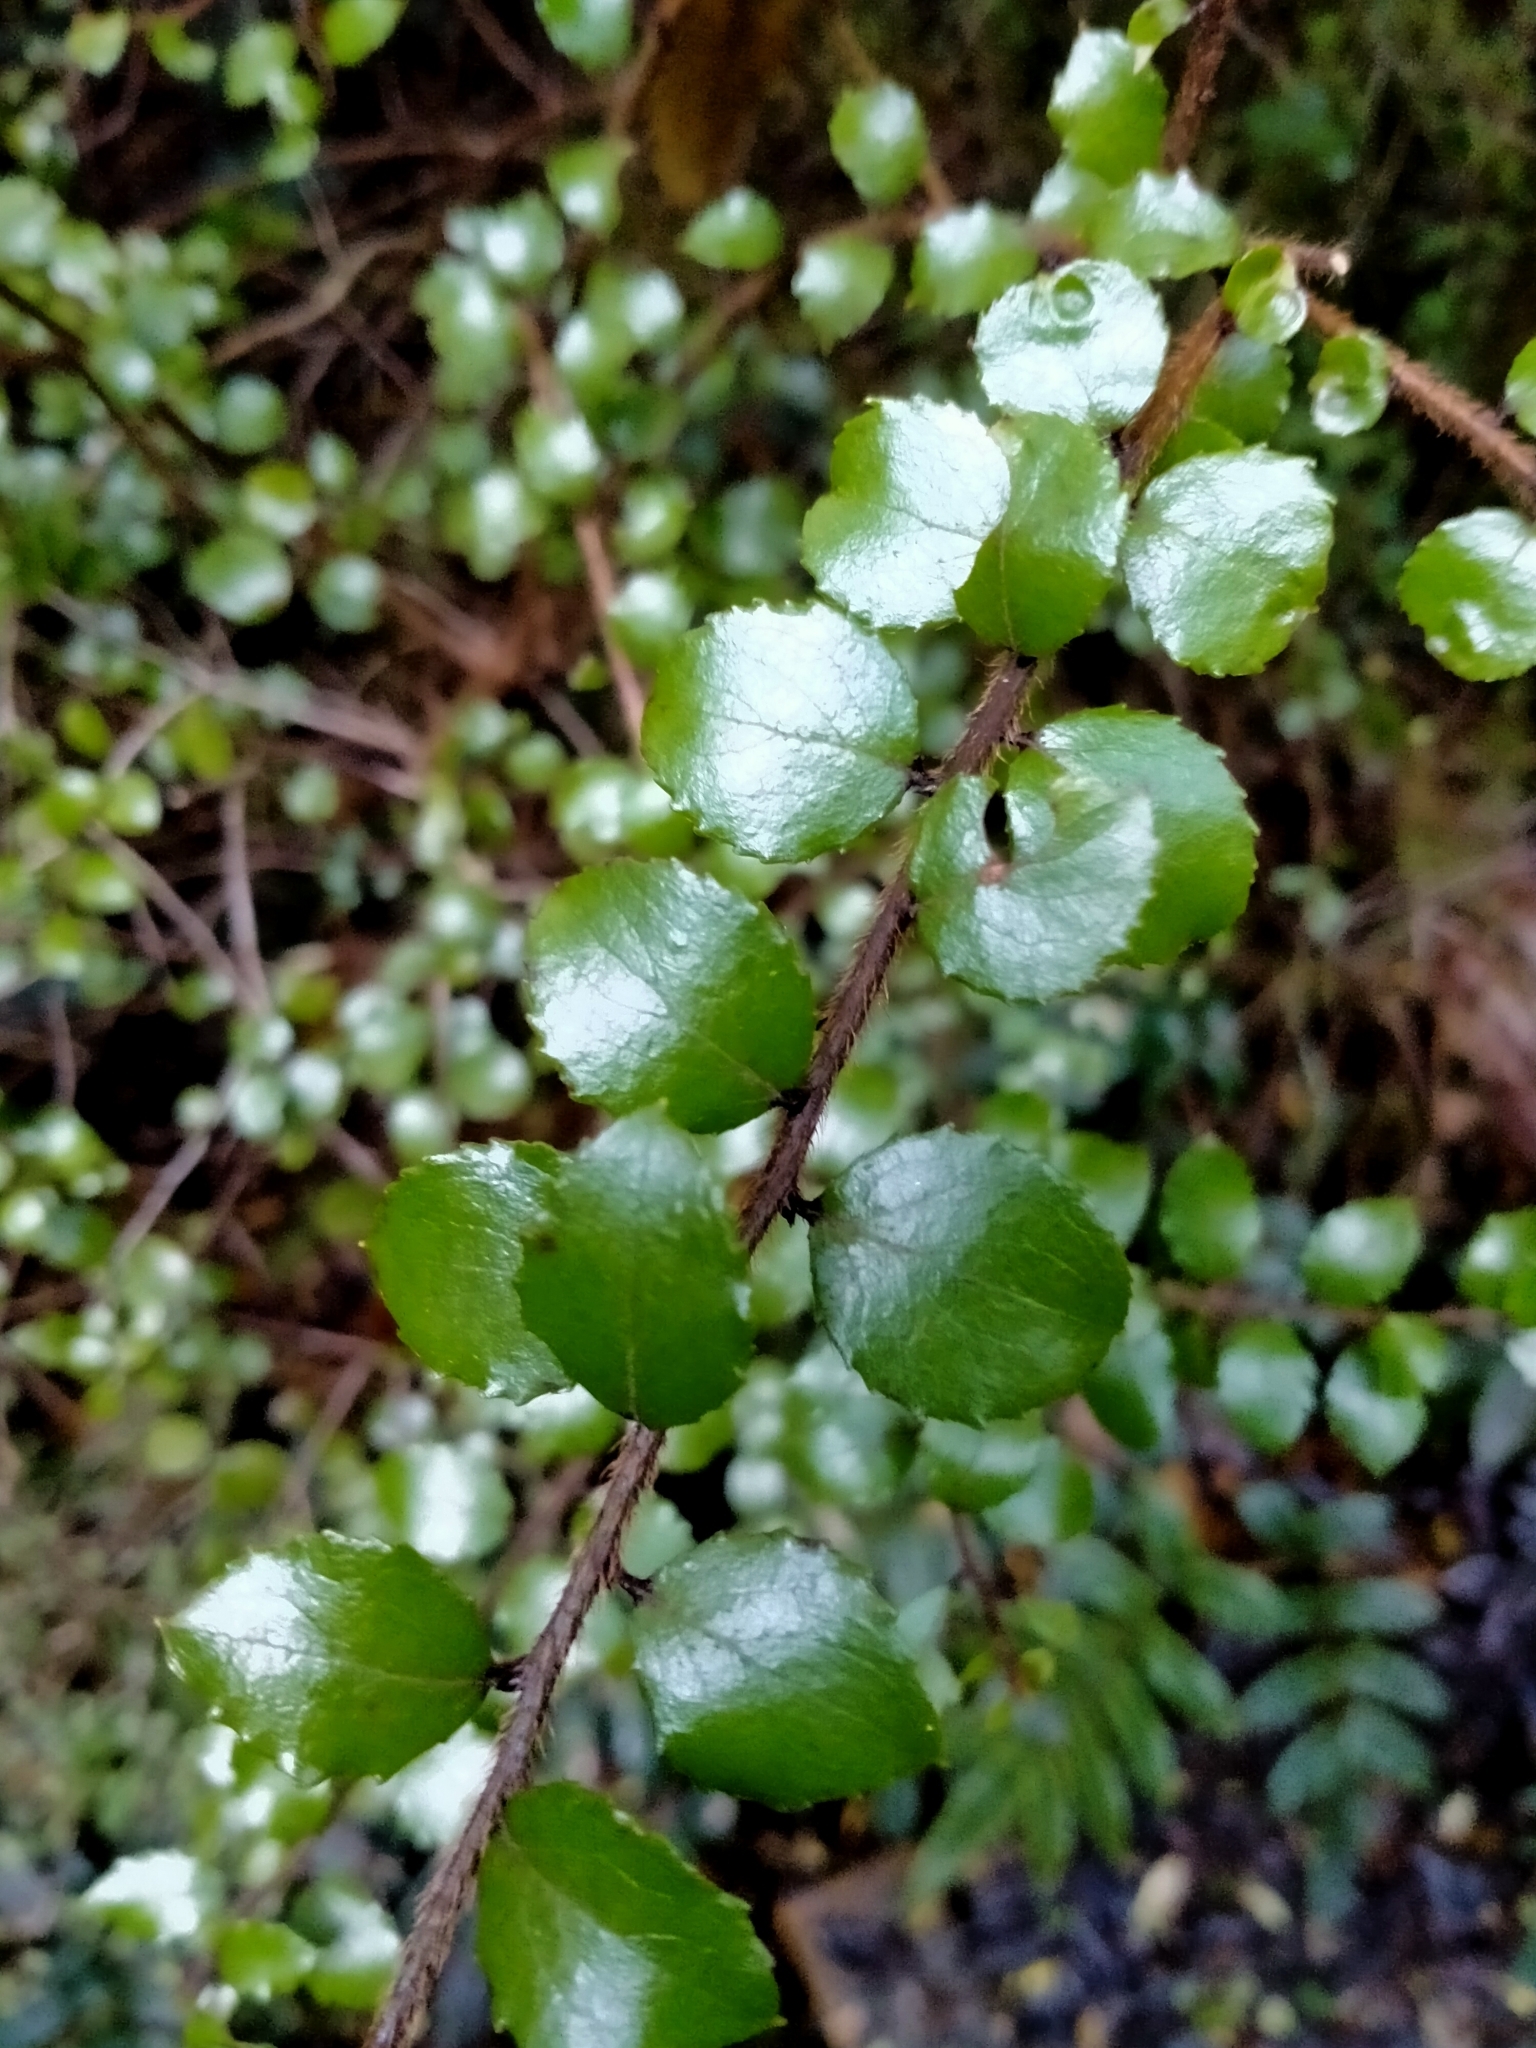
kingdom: Plantae
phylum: Tracheophyta
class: Magnoliopsida
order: Ericales
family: Ericaceae
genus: Gaultheria
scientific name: Gaultheria antipoda
